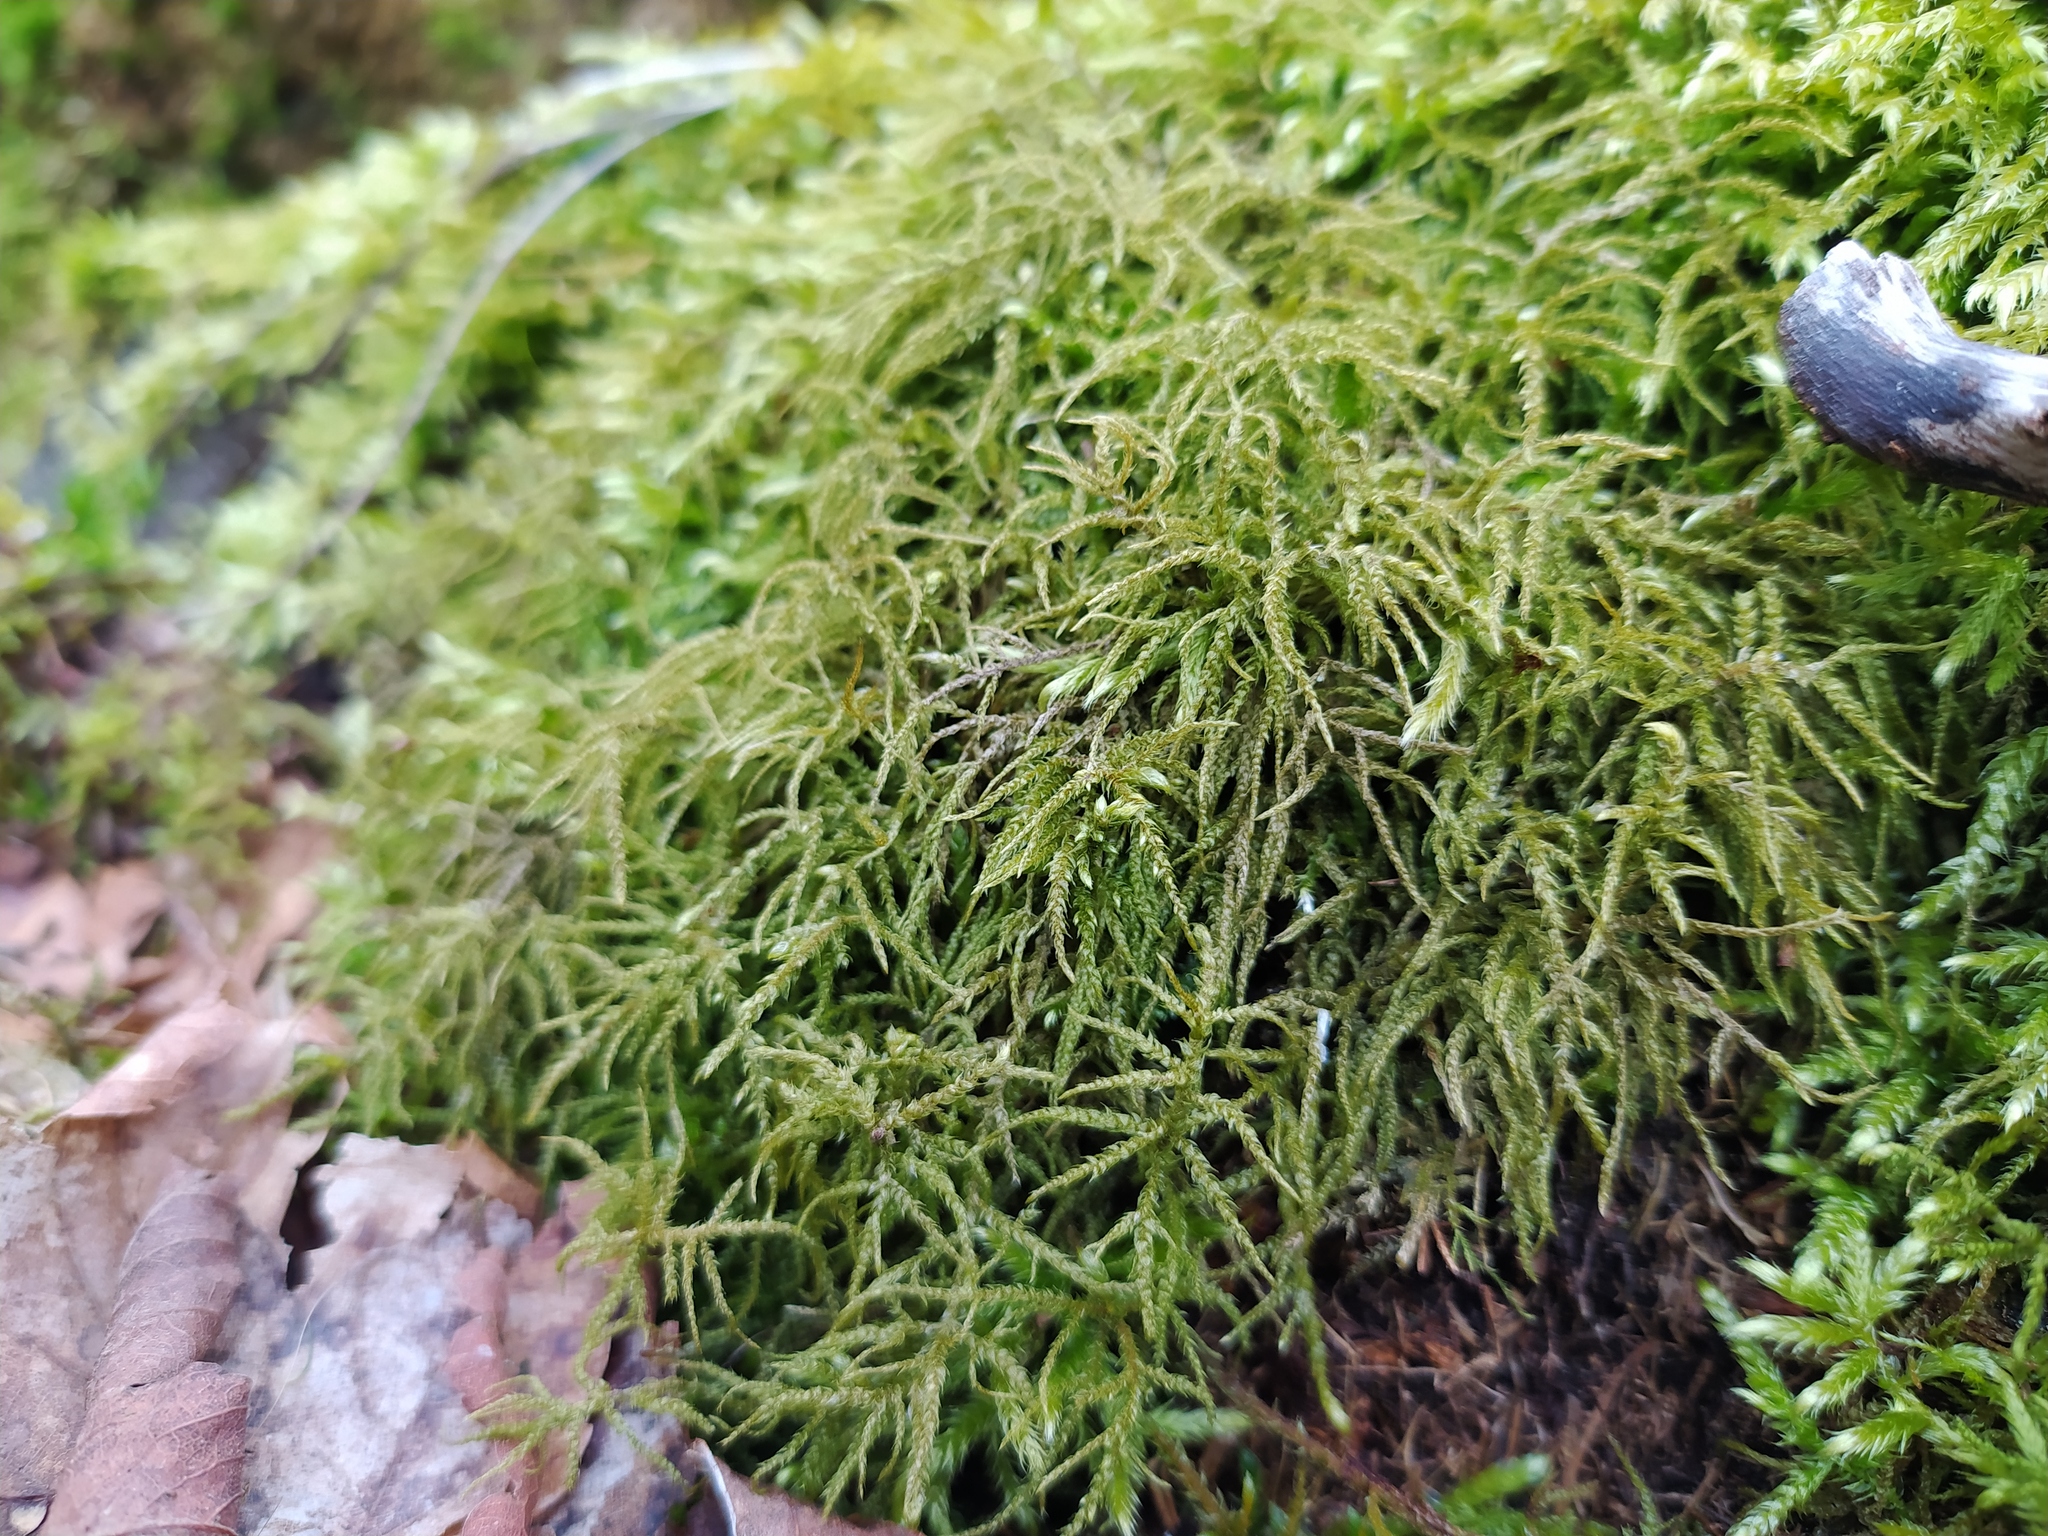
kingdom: Plantae
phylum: Bryophyta
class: Bryopsida
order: Hypnales
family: Hylocomiaceae
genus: Hylocomiastrum
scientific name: Hylocomiastrum umbratum
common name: Shaded woods moss
